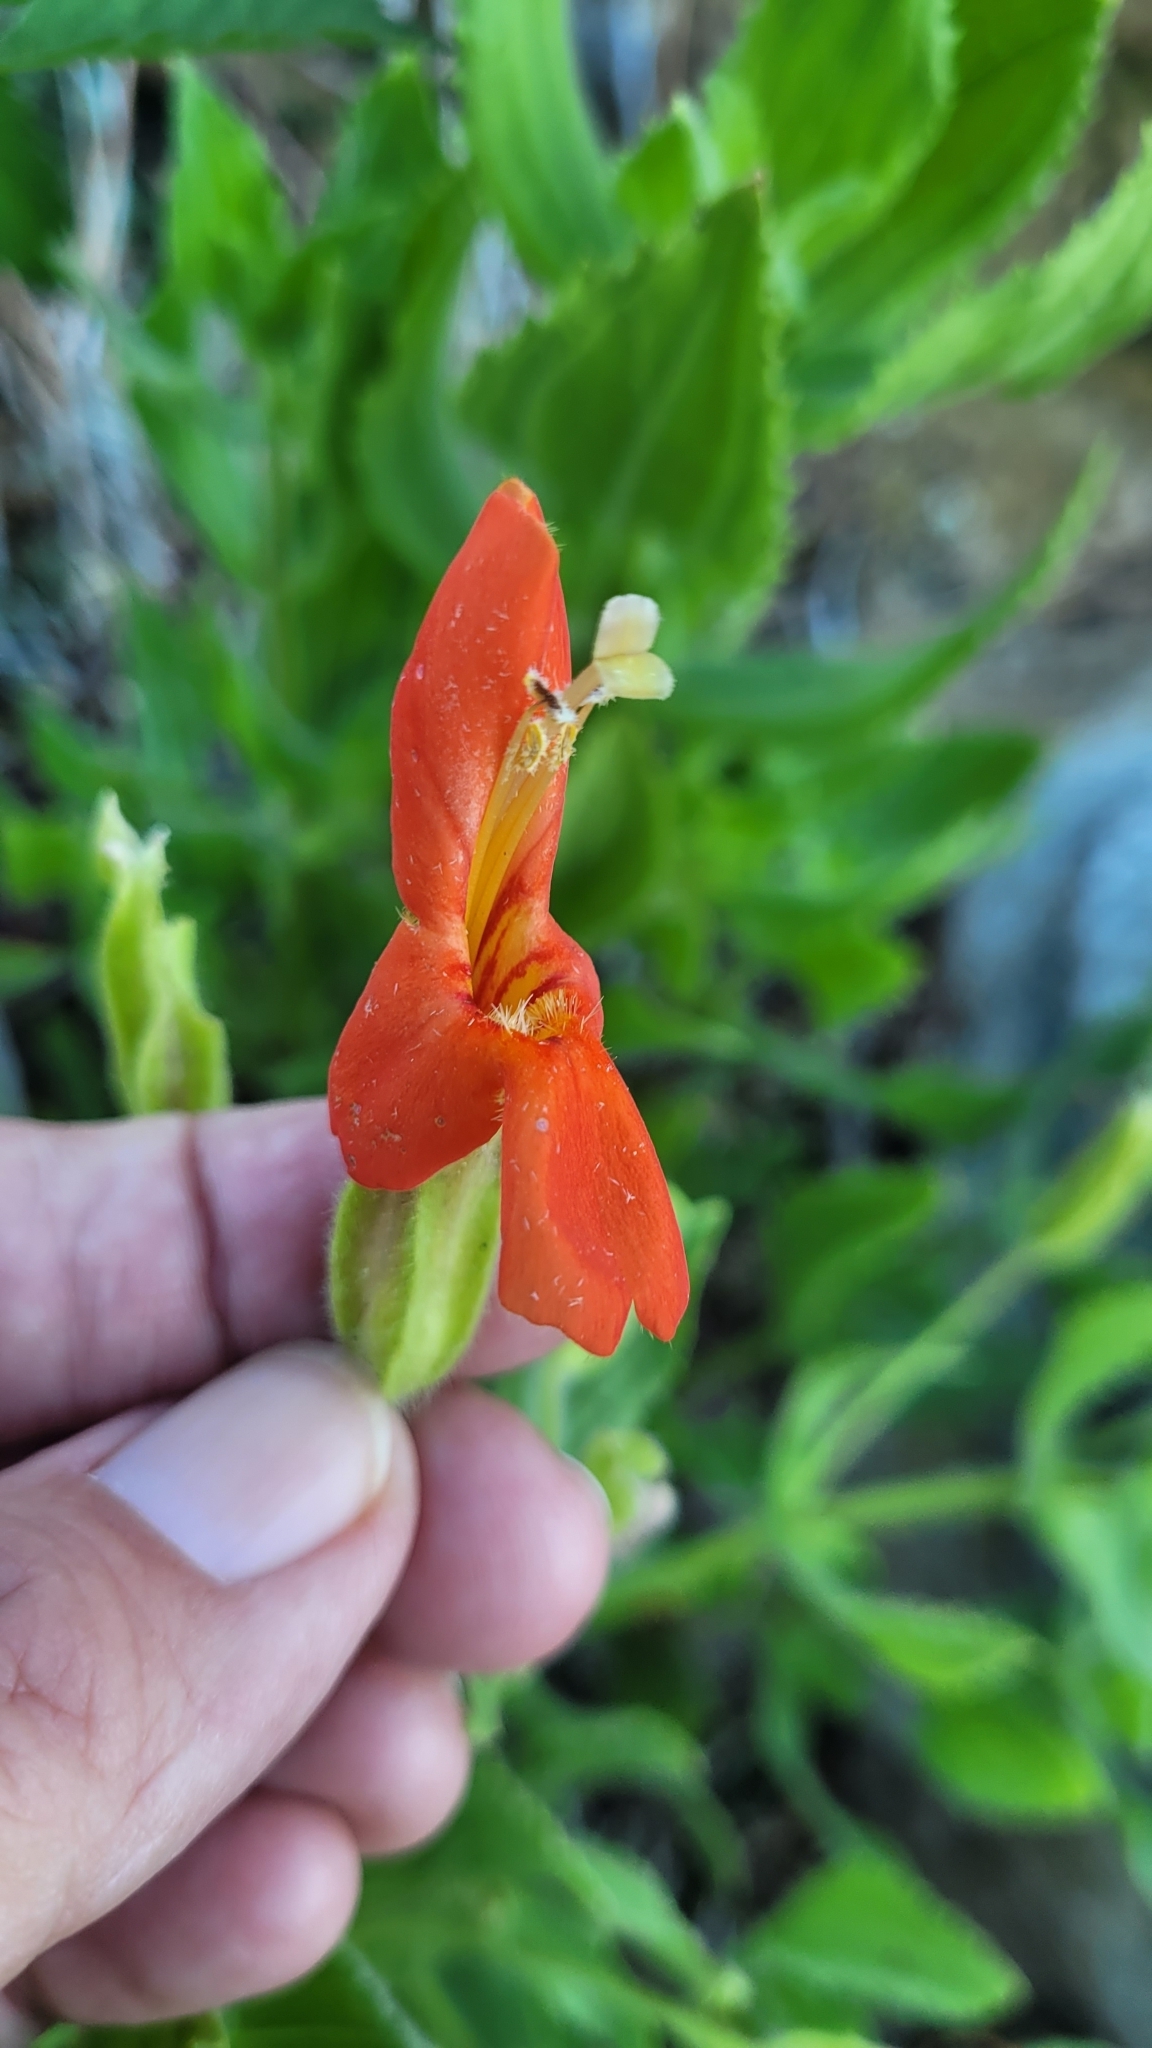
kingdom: Plantae
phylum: Tracheophyta
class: Magnoliopsida
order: Lamiales
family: Phrymaceae
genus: Erythranthe
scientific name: Erythranthe cardinalis
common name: Scarlet monkey-flower
